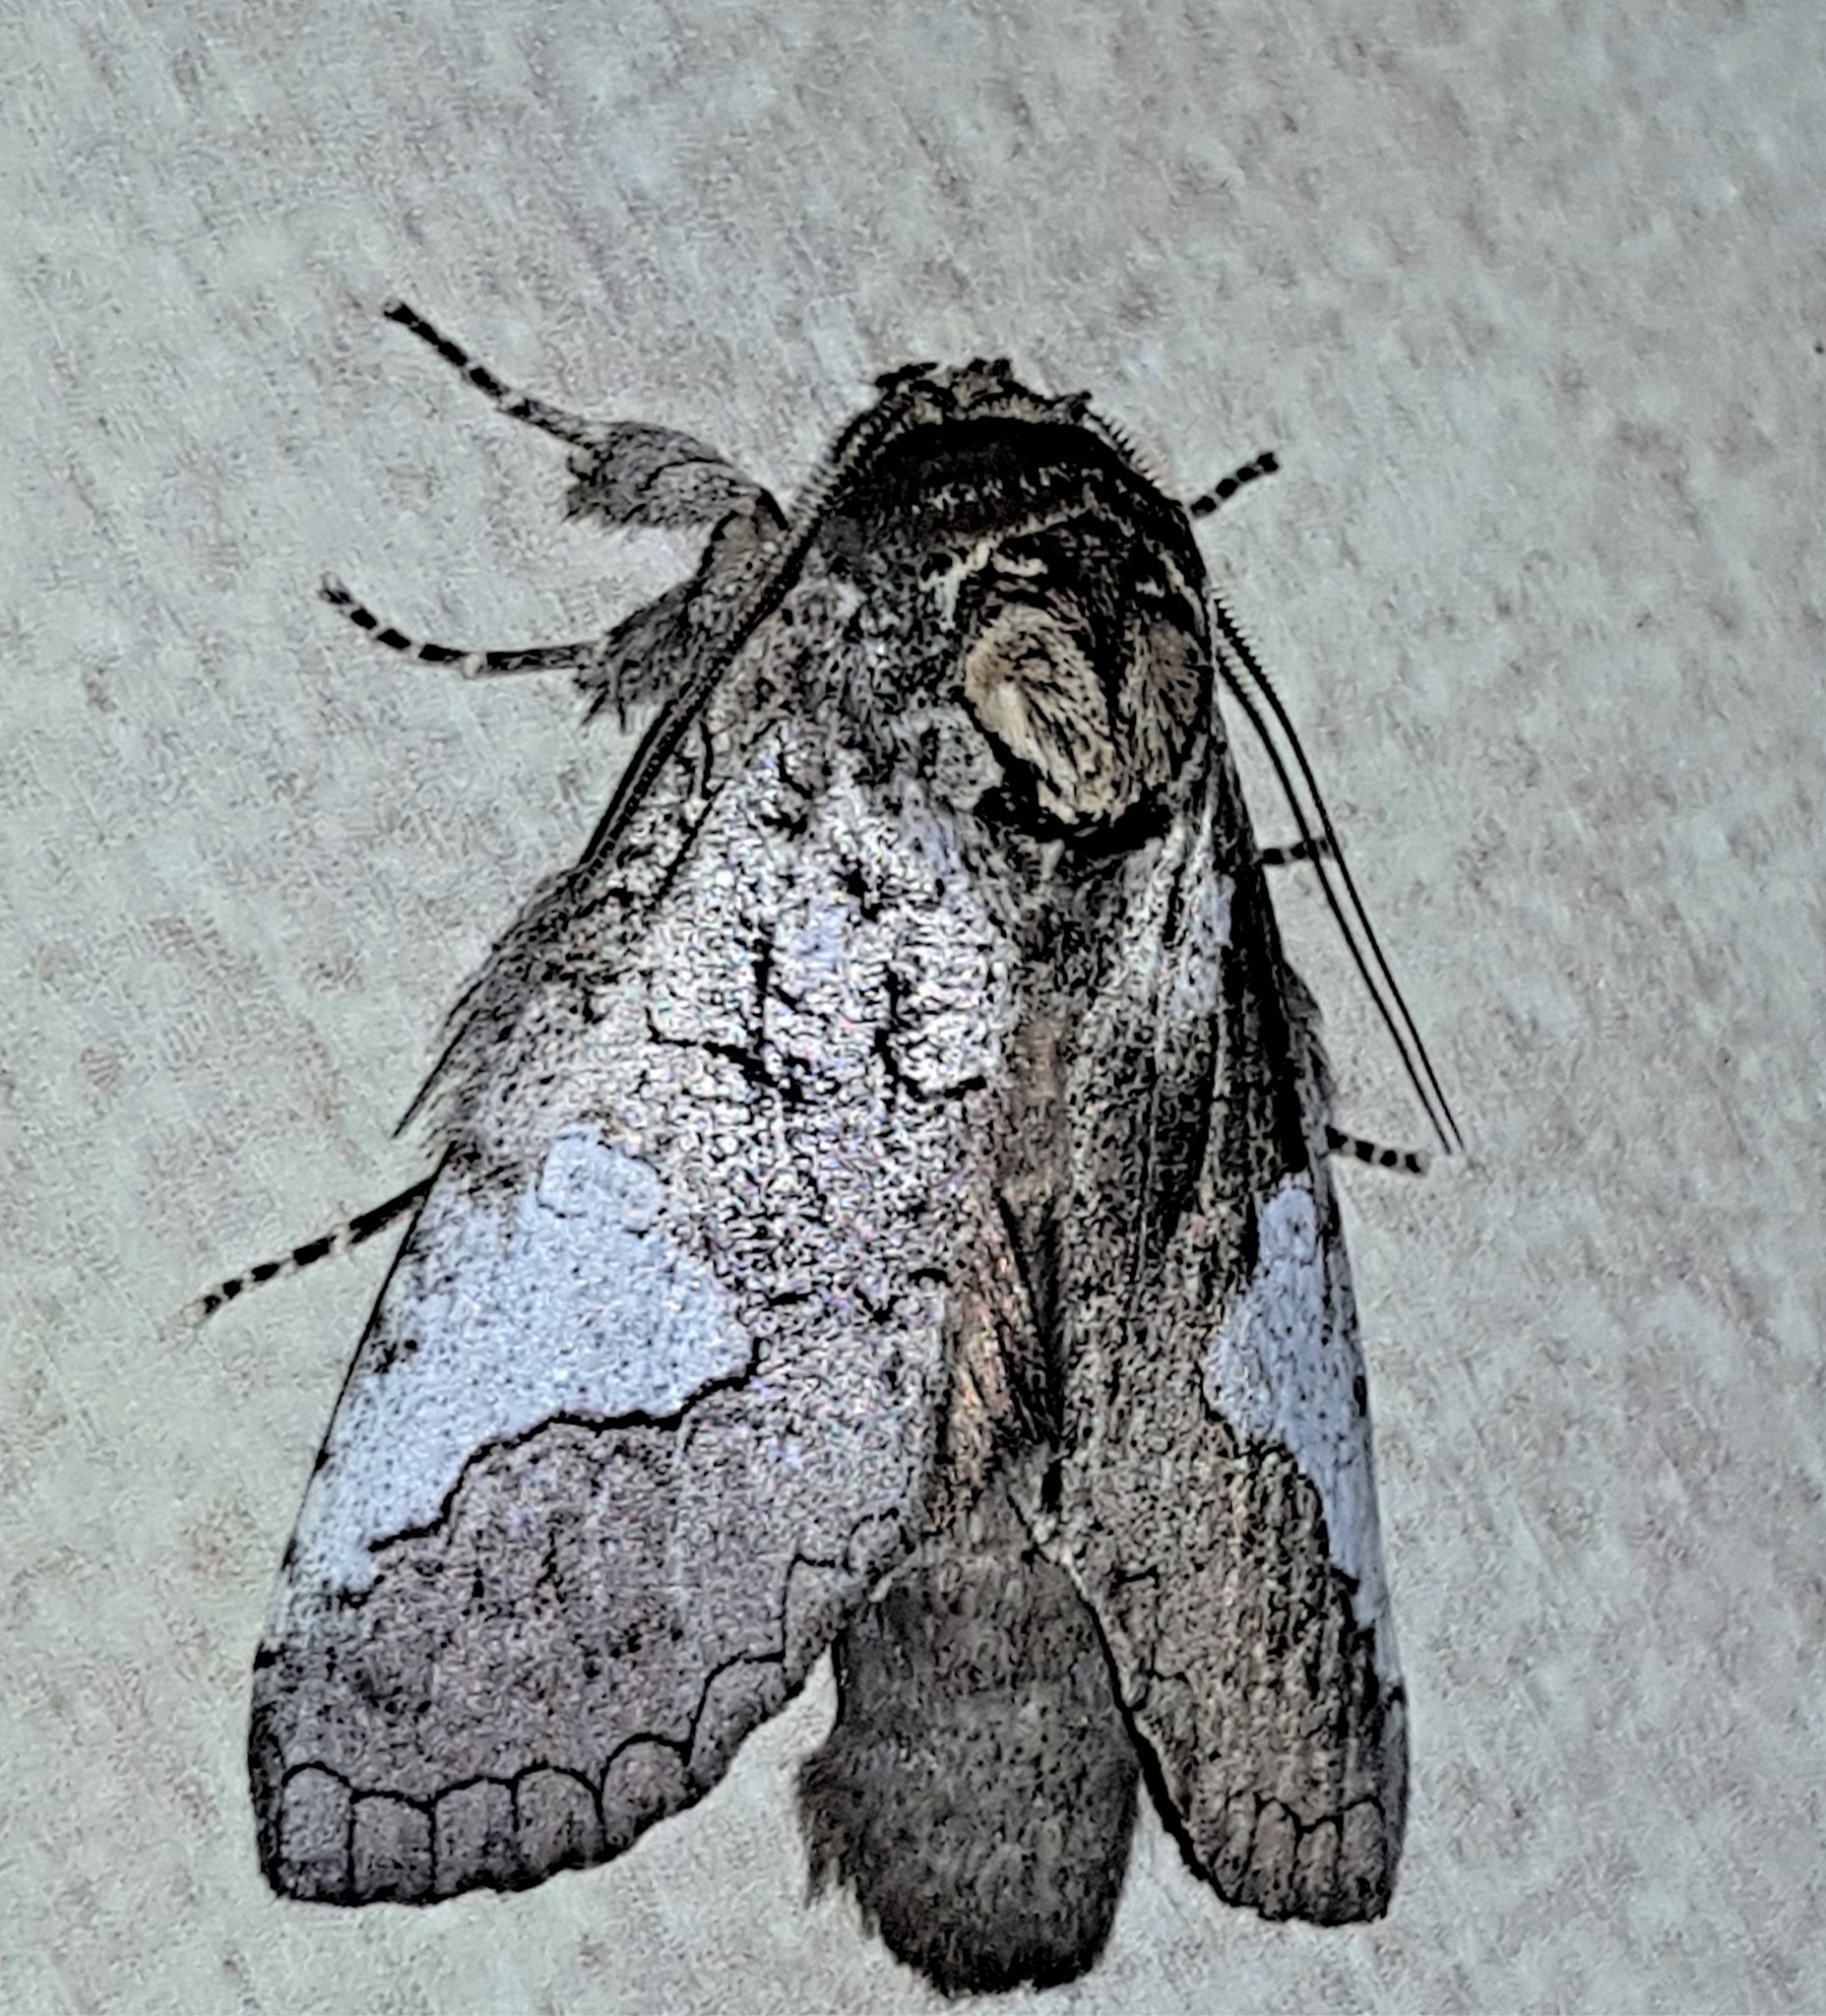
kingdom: Animalia
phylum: Arthropoda
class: Insecta
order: Lepidoptera
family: Notodontidae
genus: Rifargia
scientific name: Rifargia cinga
